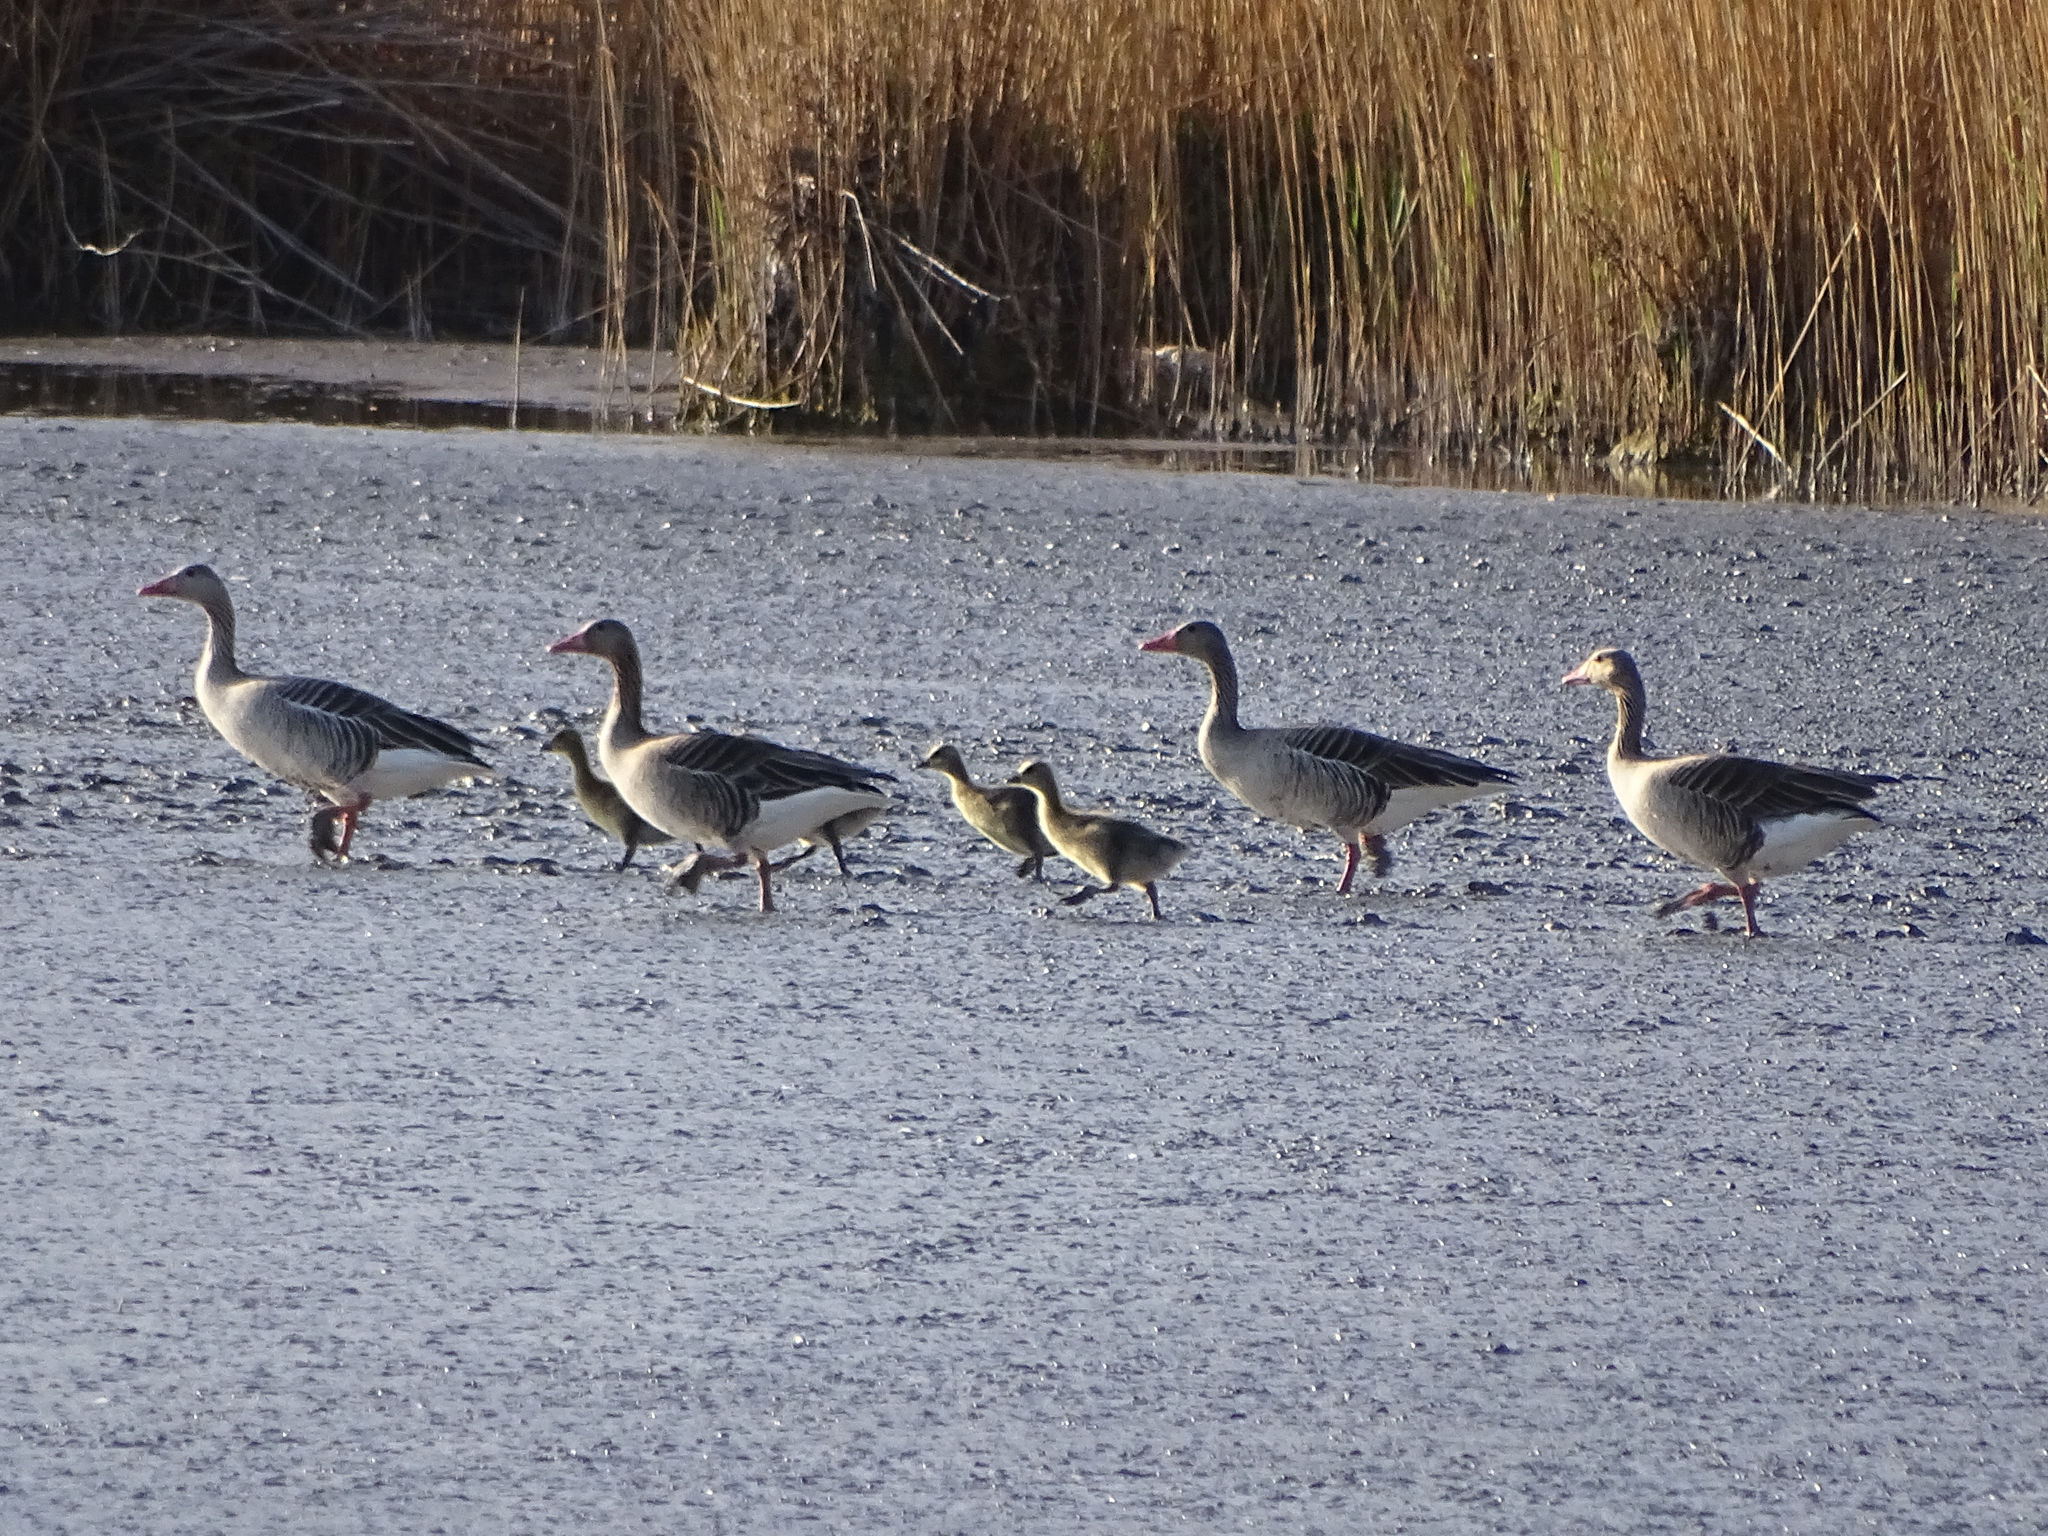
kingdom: Animalia
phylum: Chordata
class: Aves
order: Anseriformes
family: Anatidae
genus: Anser
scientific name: Anser anser
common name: Greylag goose
